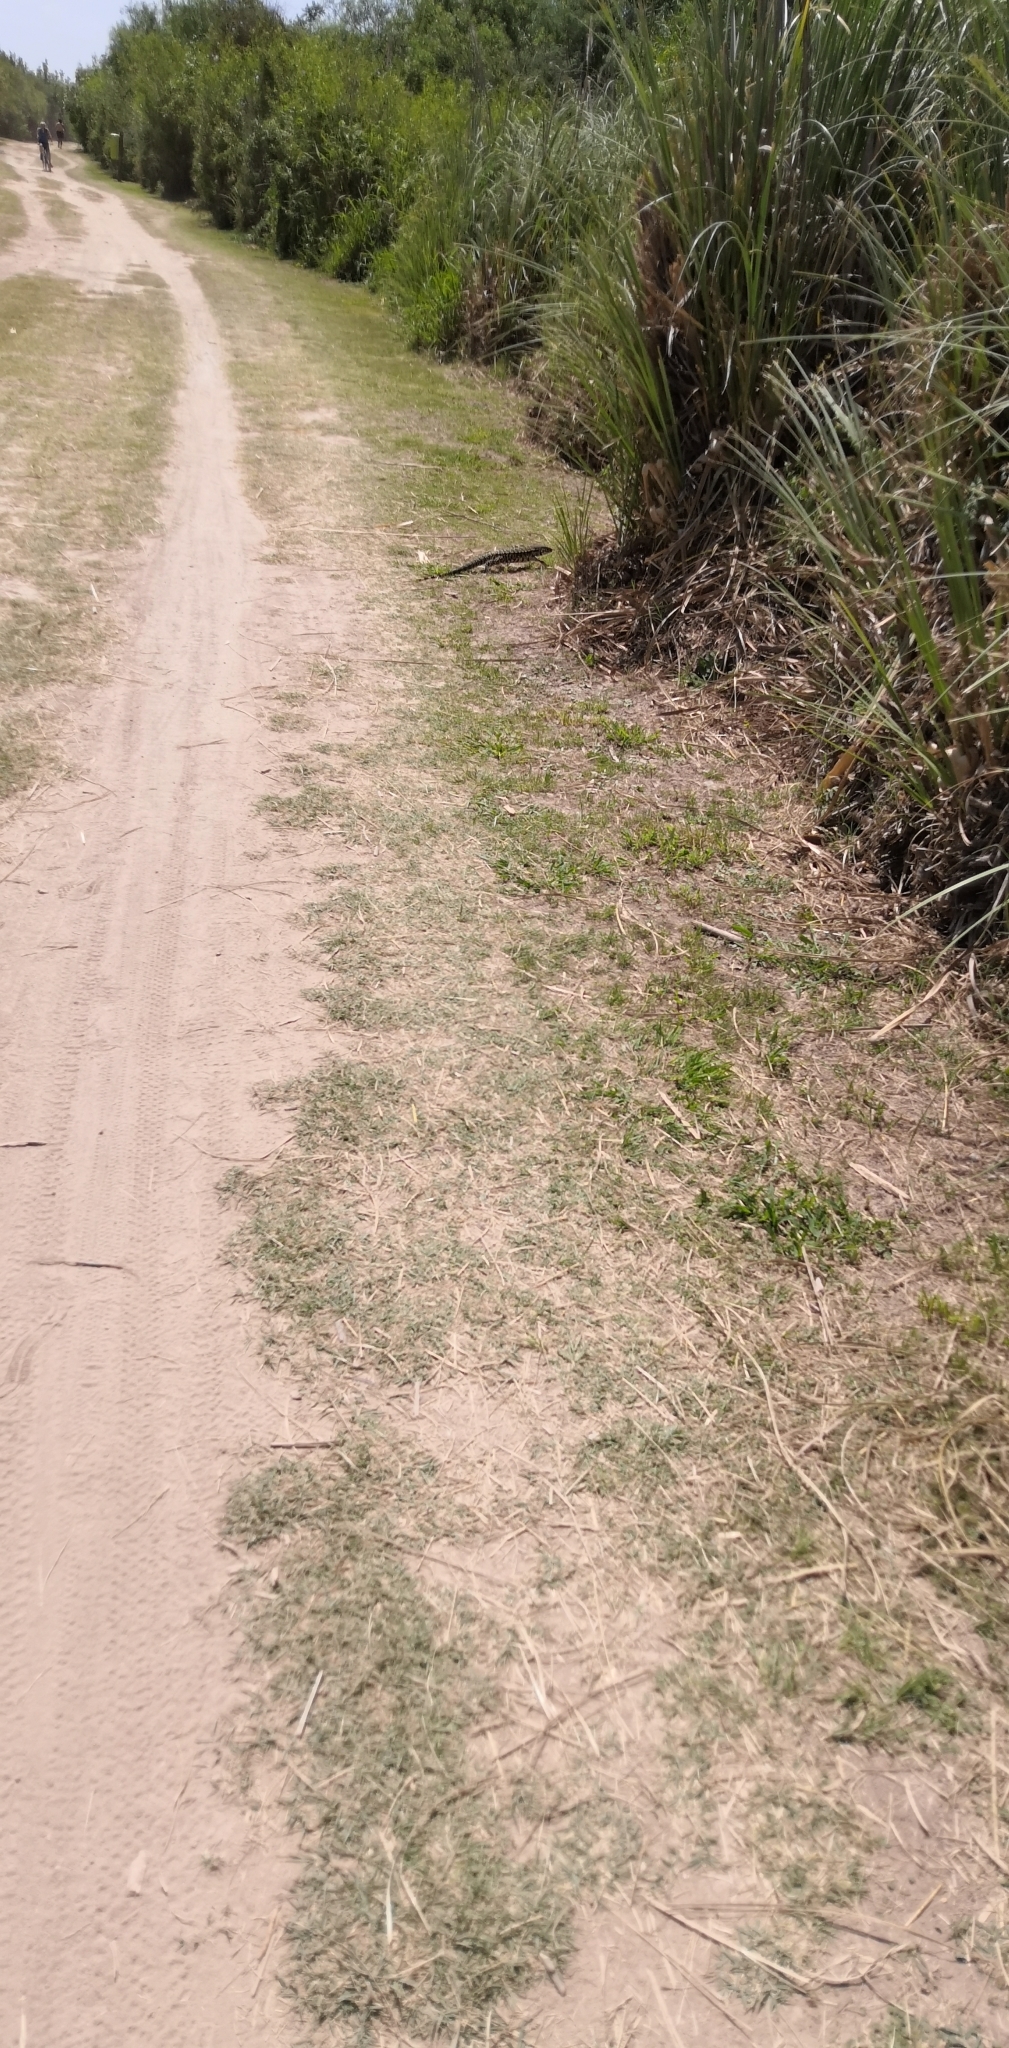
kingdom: Animalia
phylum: Chordata
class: Squamata
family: Teiidae
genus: Salvator
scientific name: Salvator merianae
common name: Argentine black and white tegu
